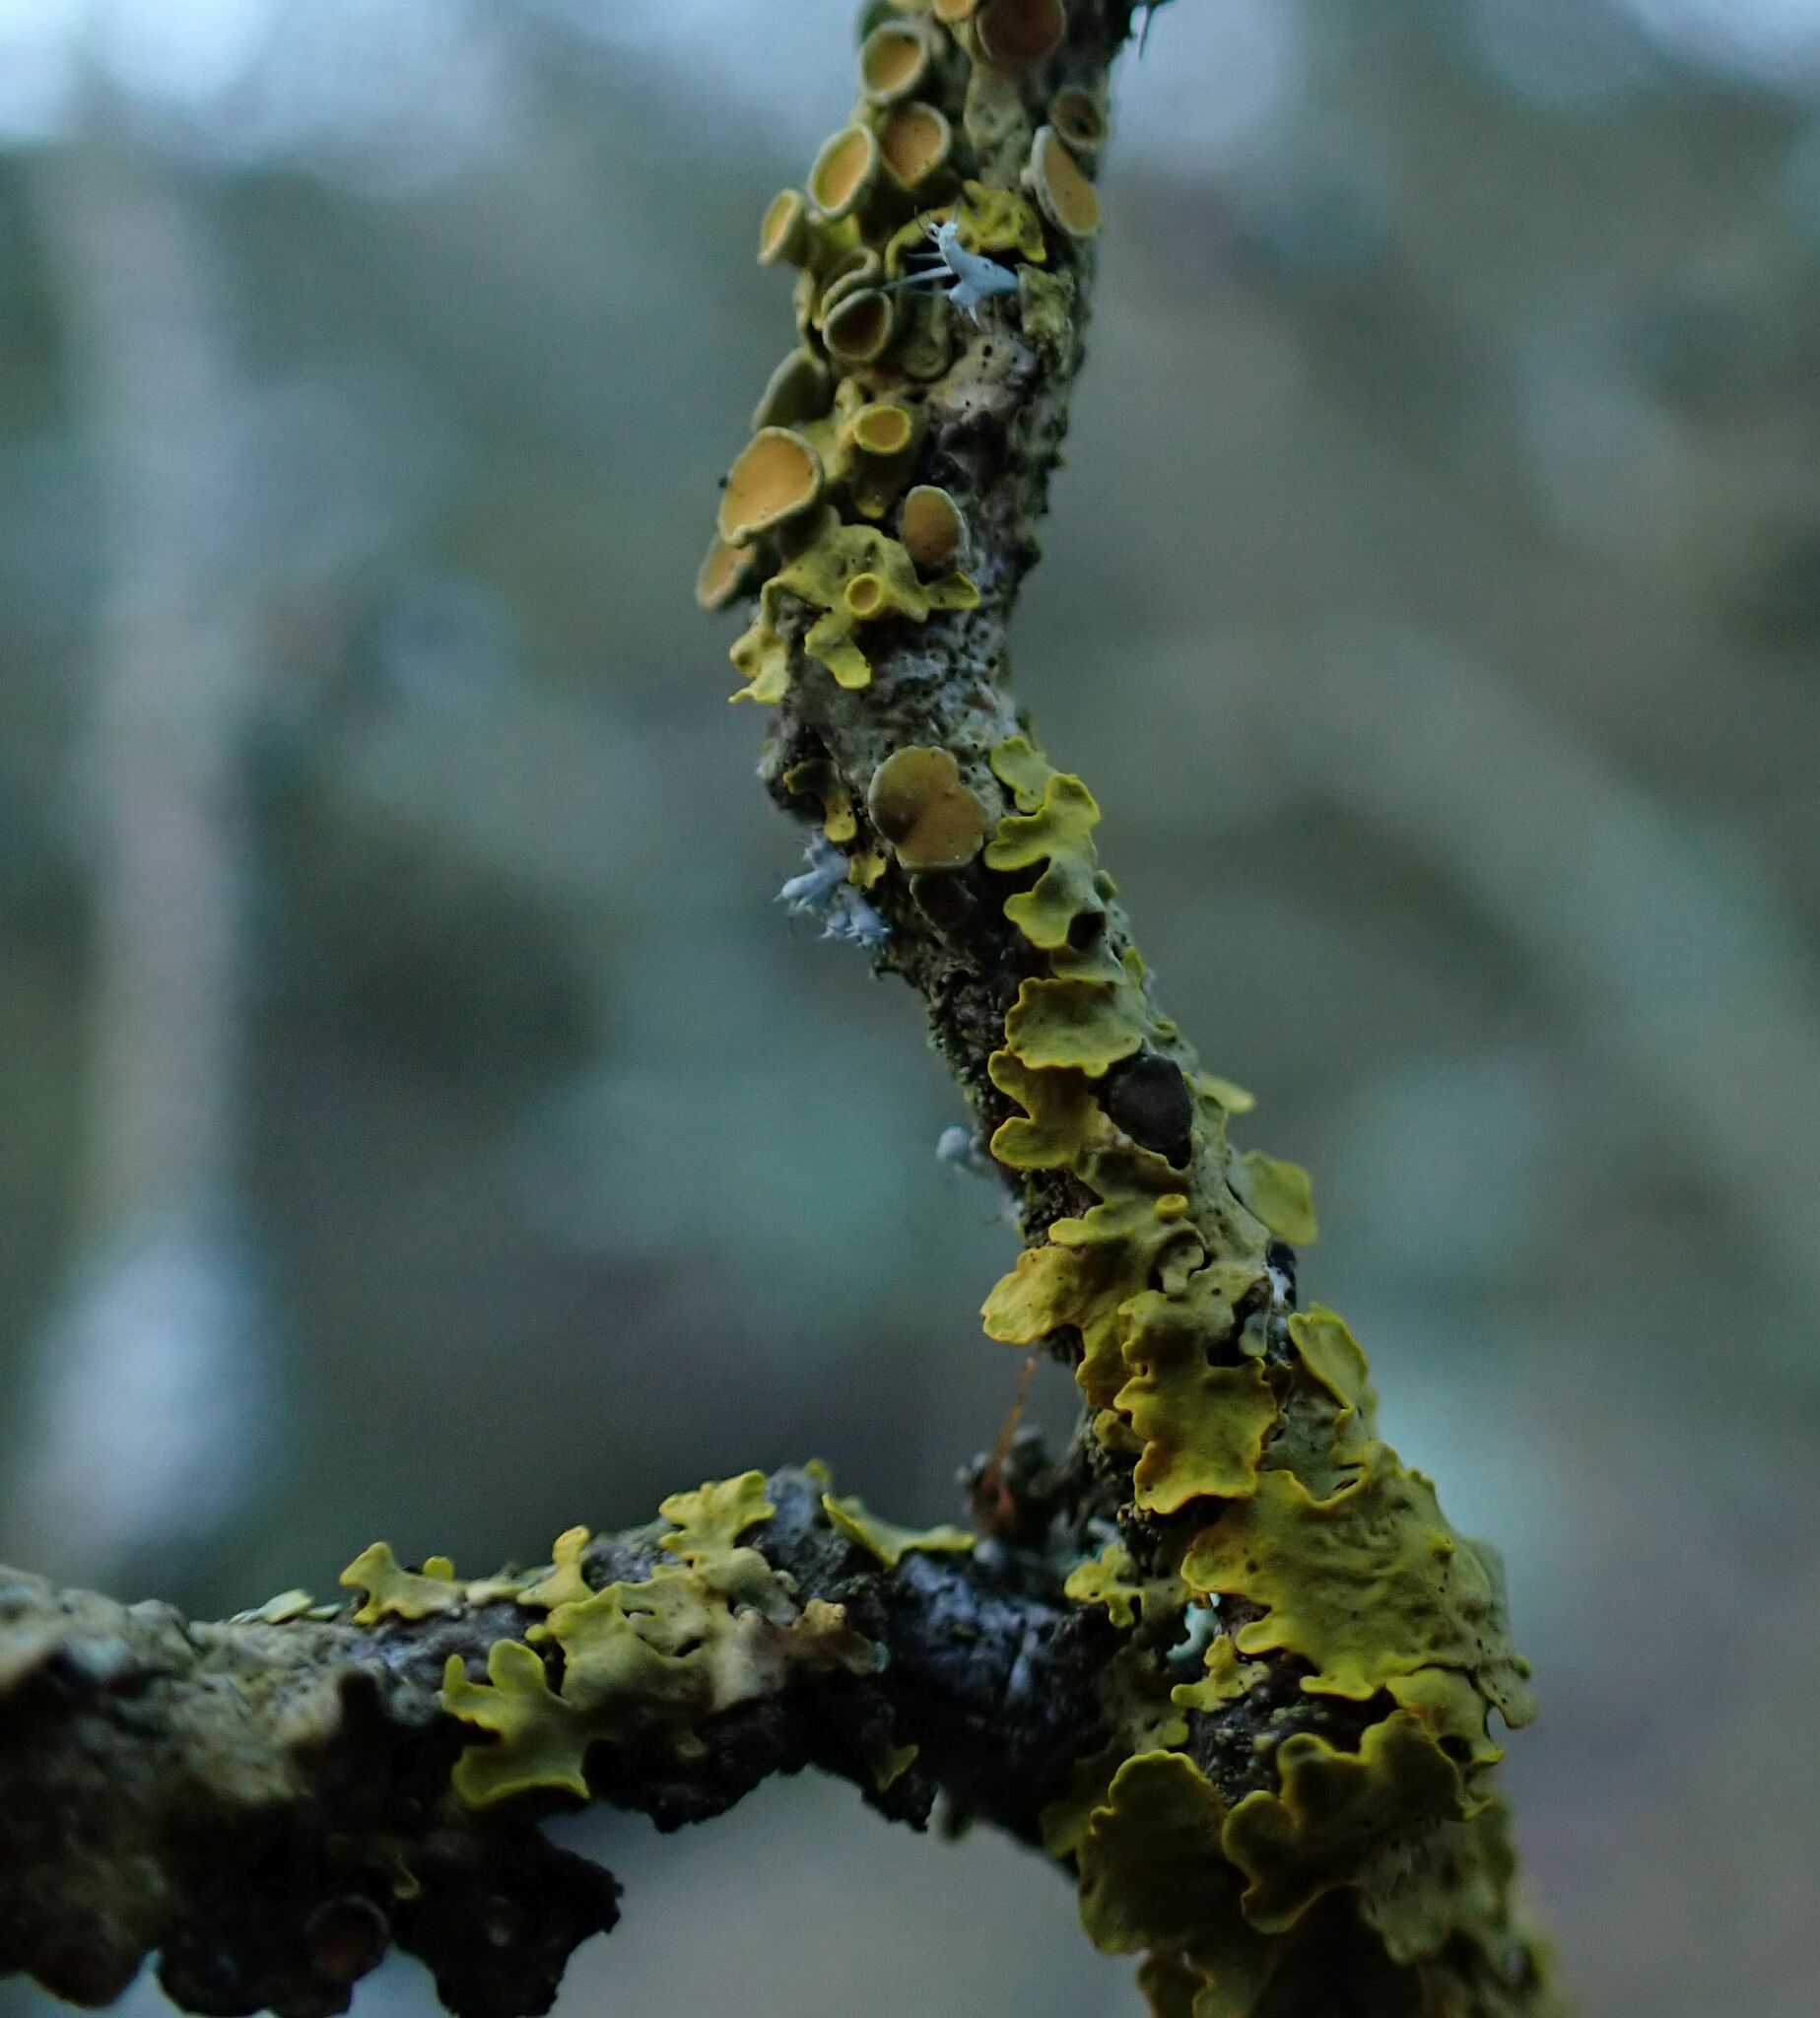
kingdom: Fungi
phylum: Ascomycota
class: Lecanoromycetes
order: Teloschistales
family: Teloschistaceae
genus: Xanthoria
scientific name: Xanthoria parietina
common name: Common orange lichen
